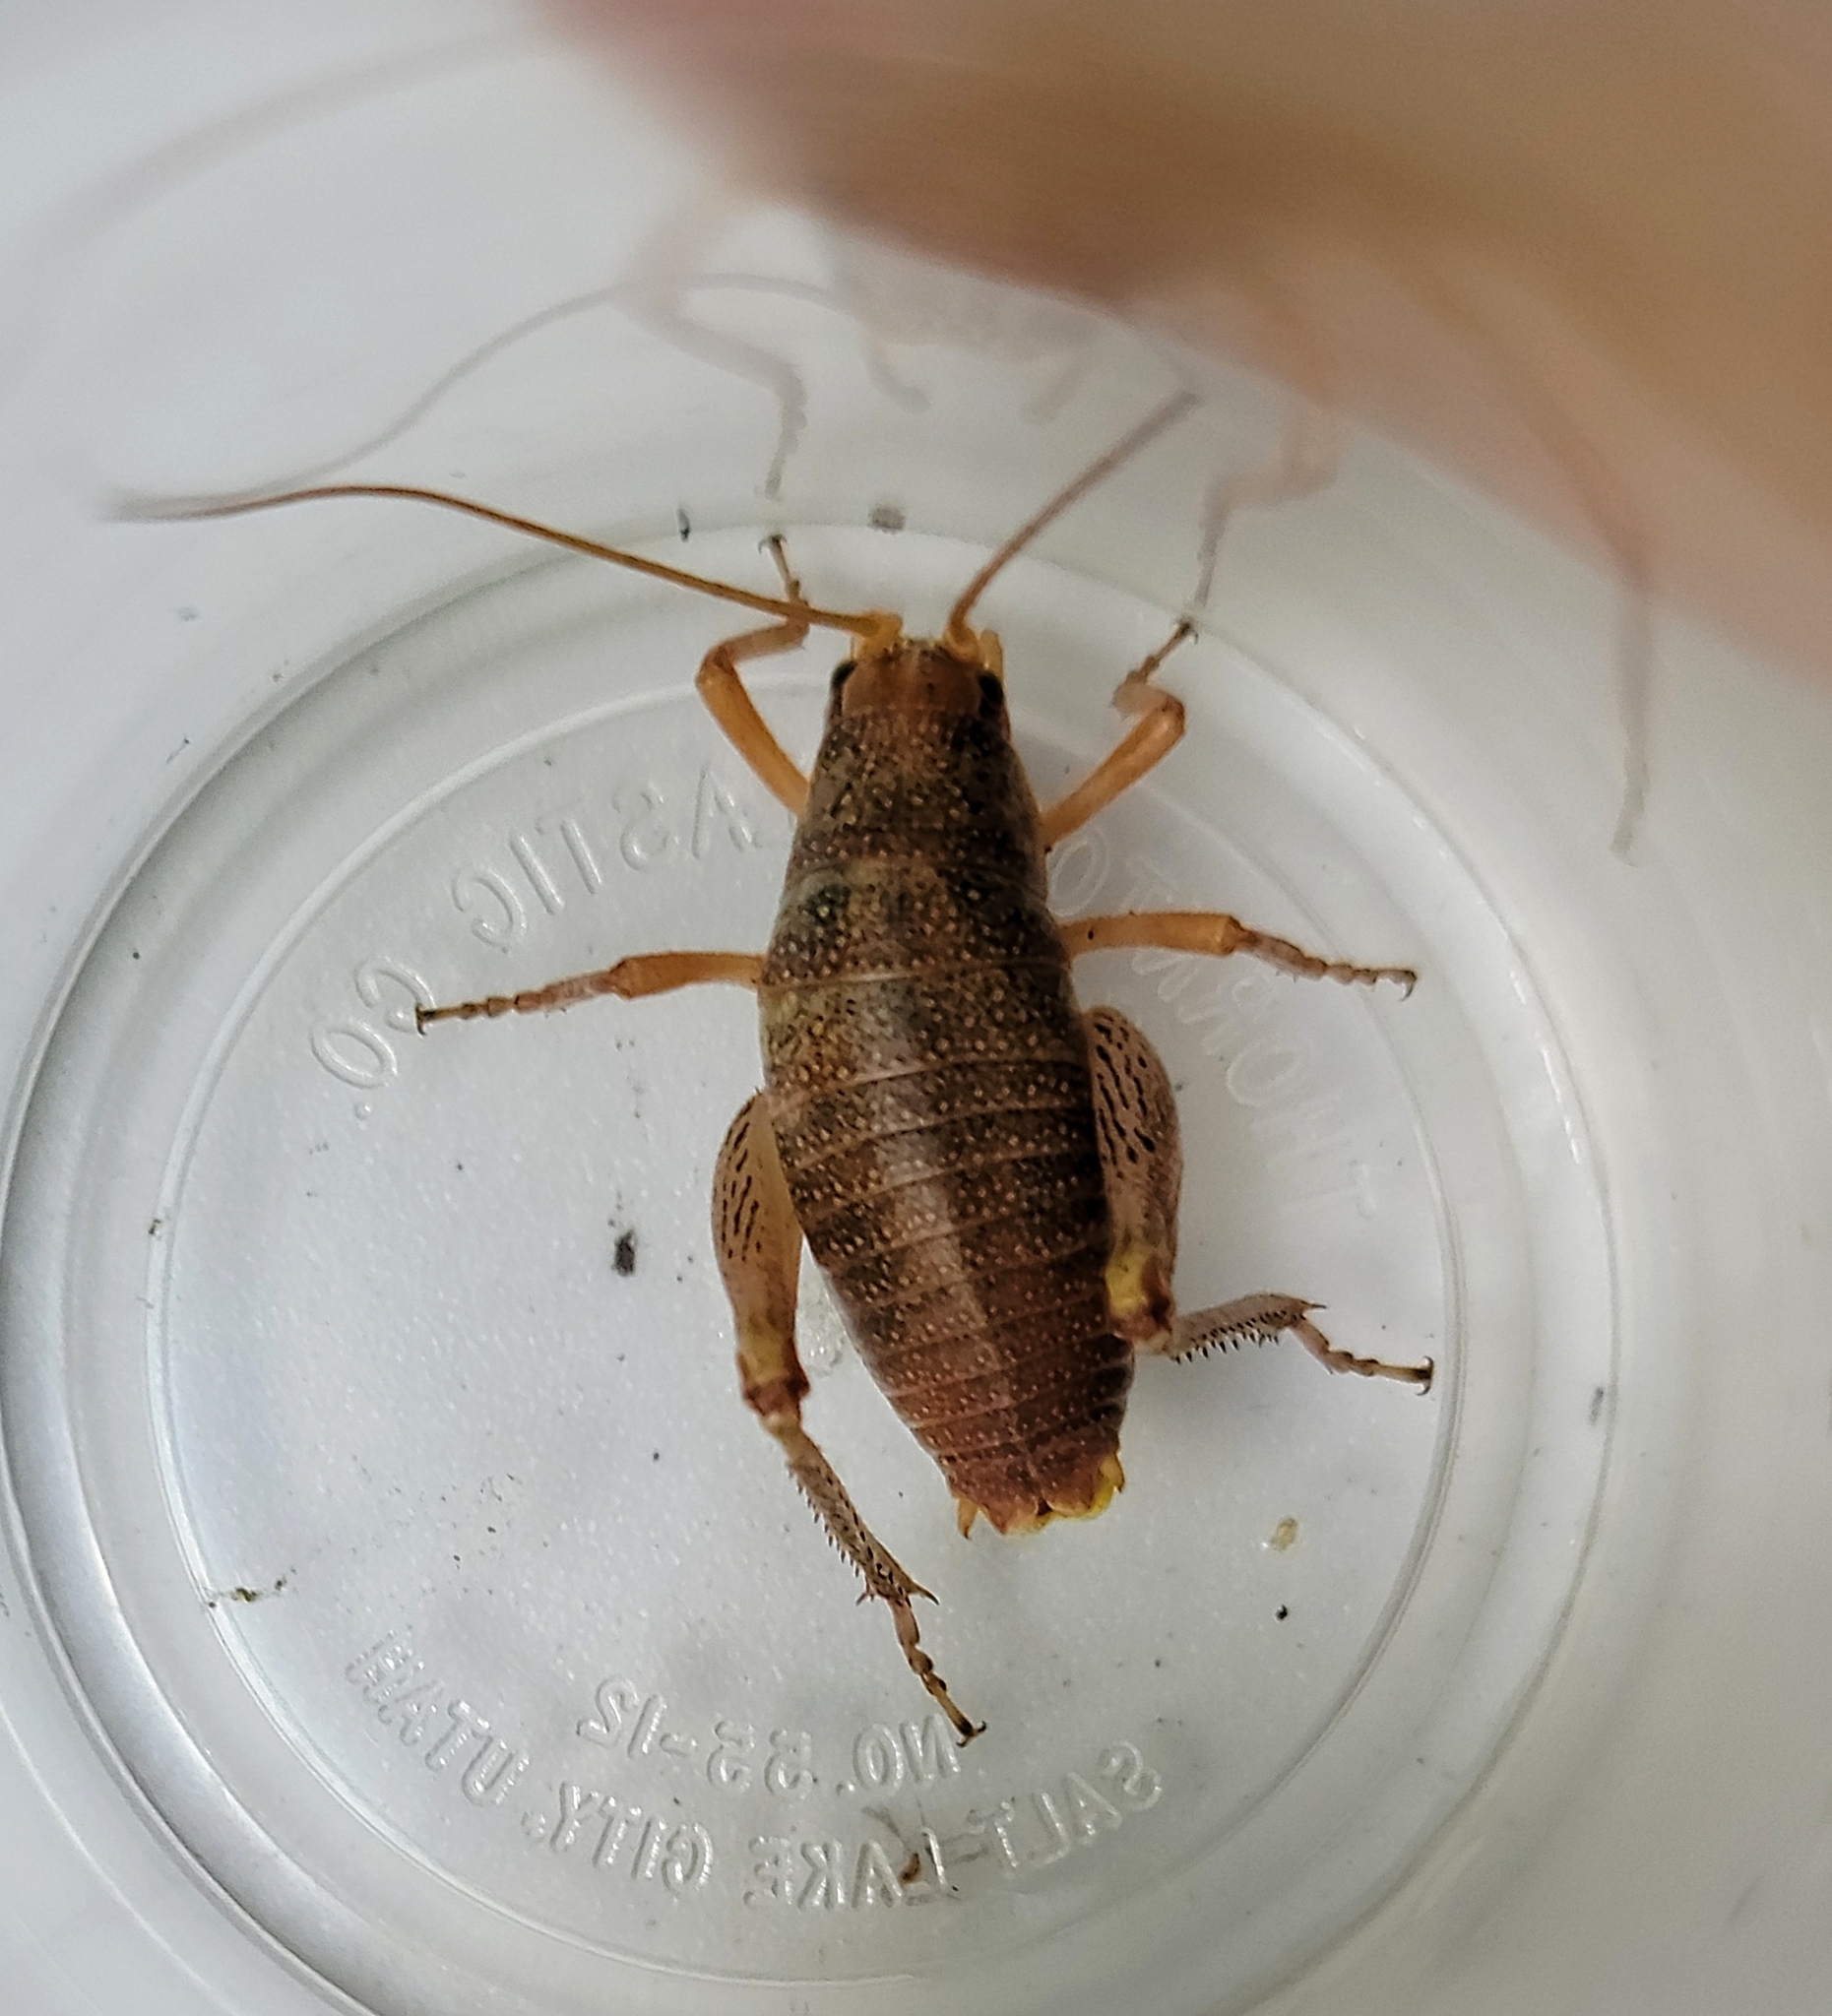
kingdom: Animalia
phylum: Arthropoda
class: Insecta
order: Orthoptera
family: Rhaphidophoridae
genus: Gammarotettix
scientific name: Gammarotettix bilobatus
